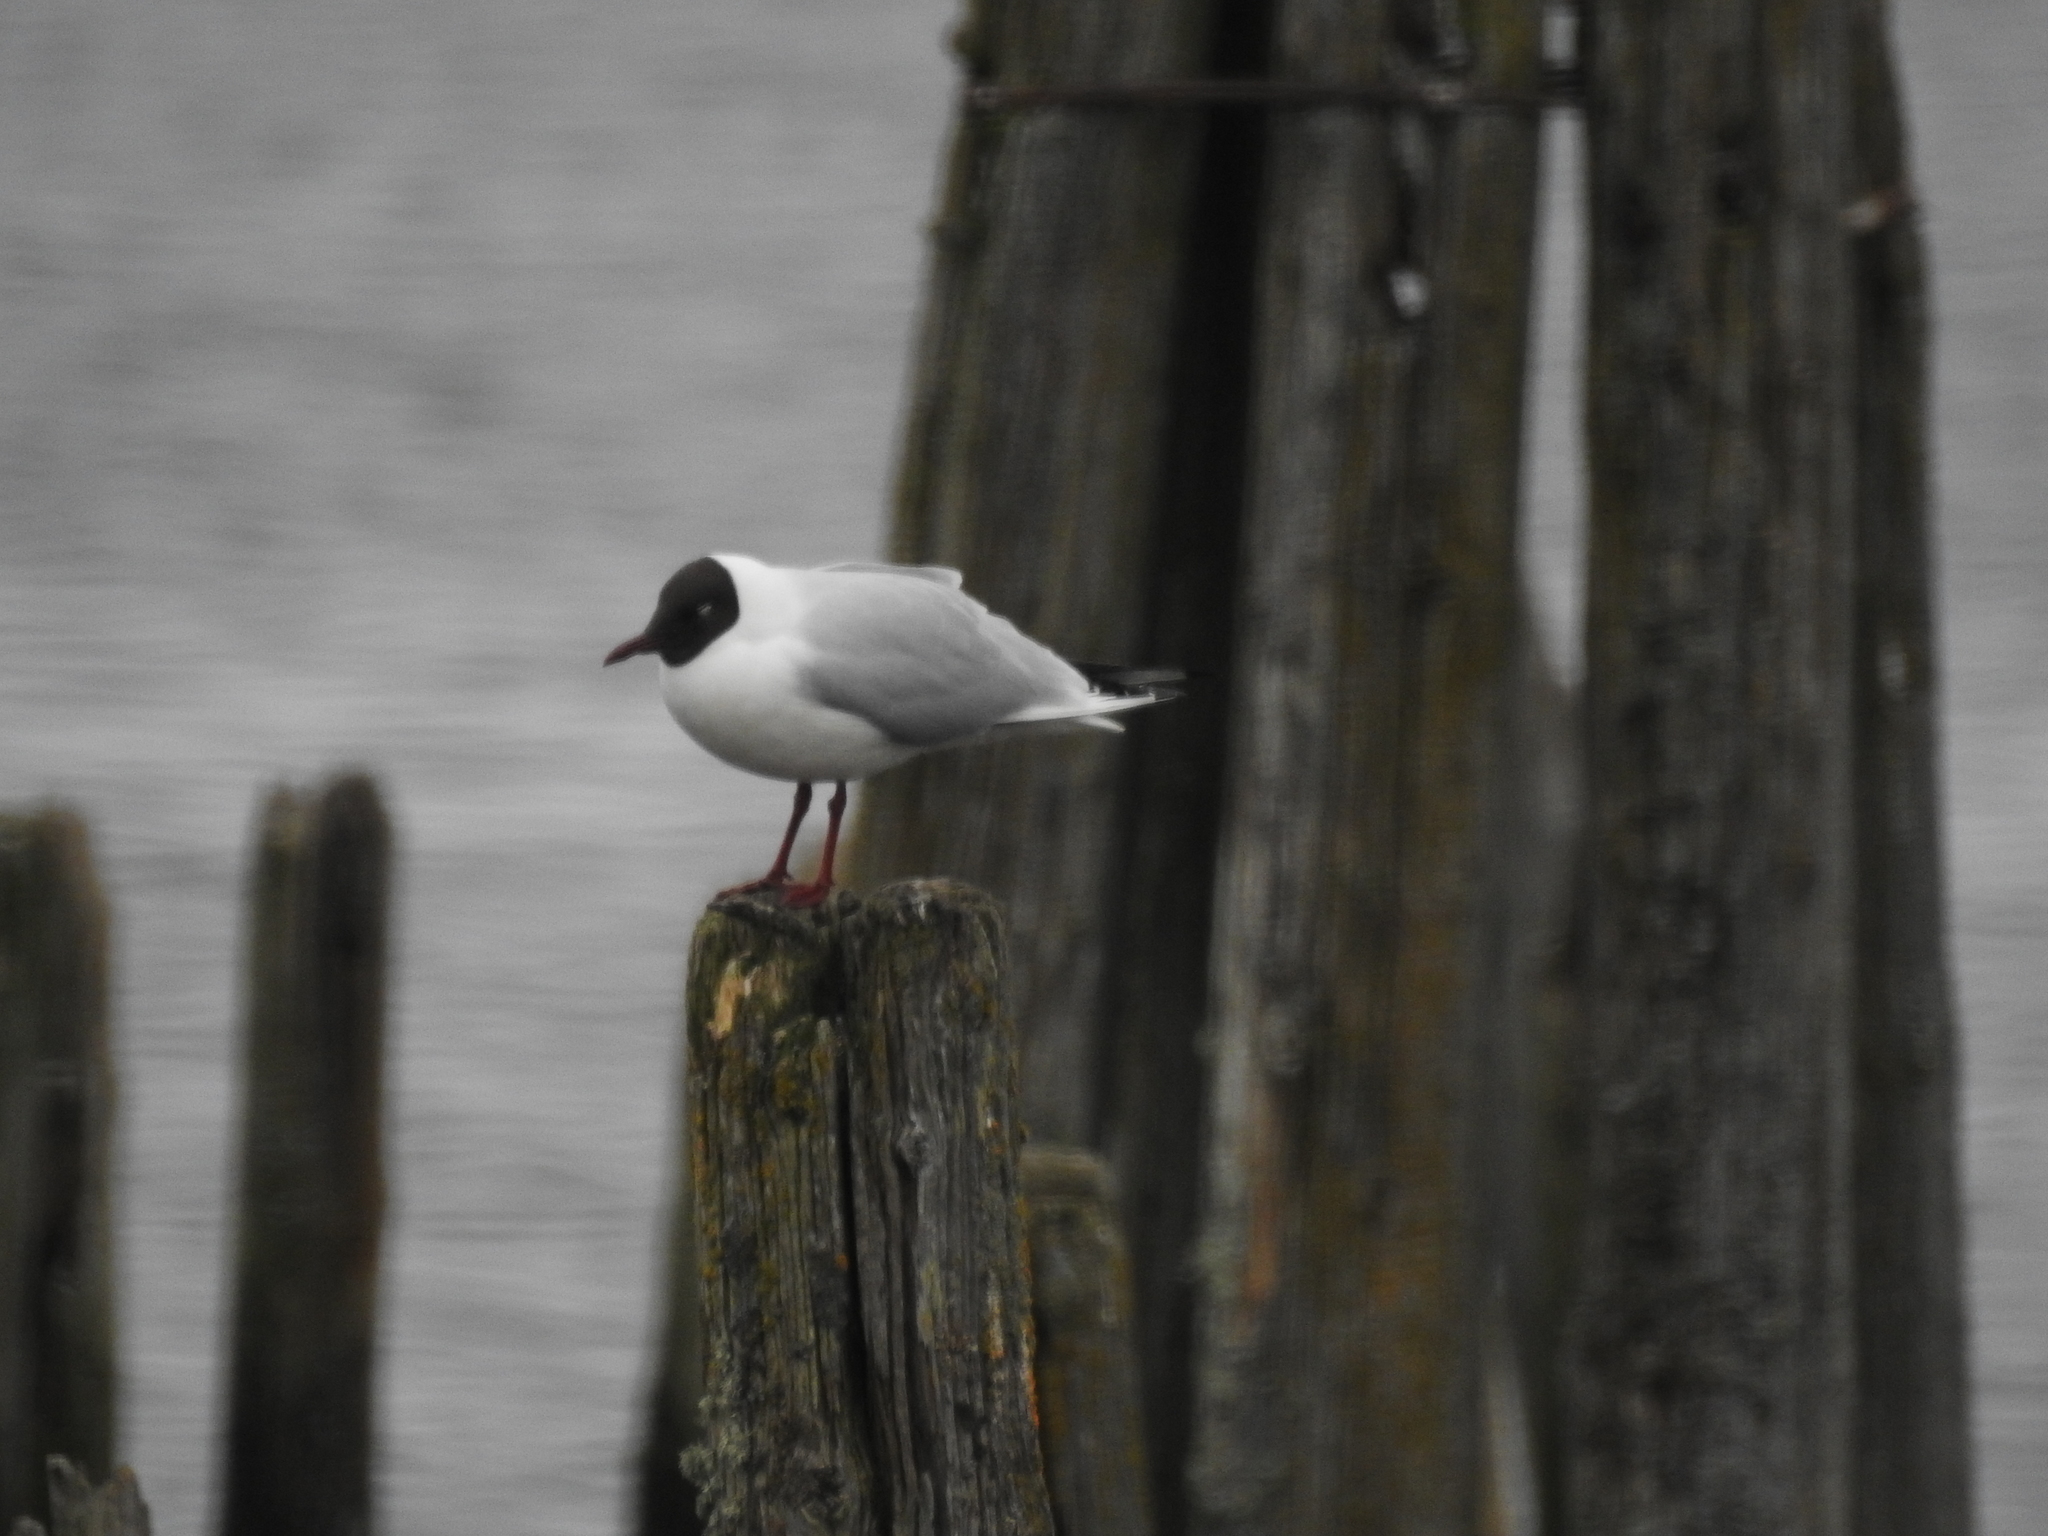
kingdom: Animalia
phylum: Chordata
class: Aves
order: Charadriiformes
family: Laridae
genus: Chroicocephalus
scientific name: Chroicocephalus ridibundus
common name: Black-headed gull
